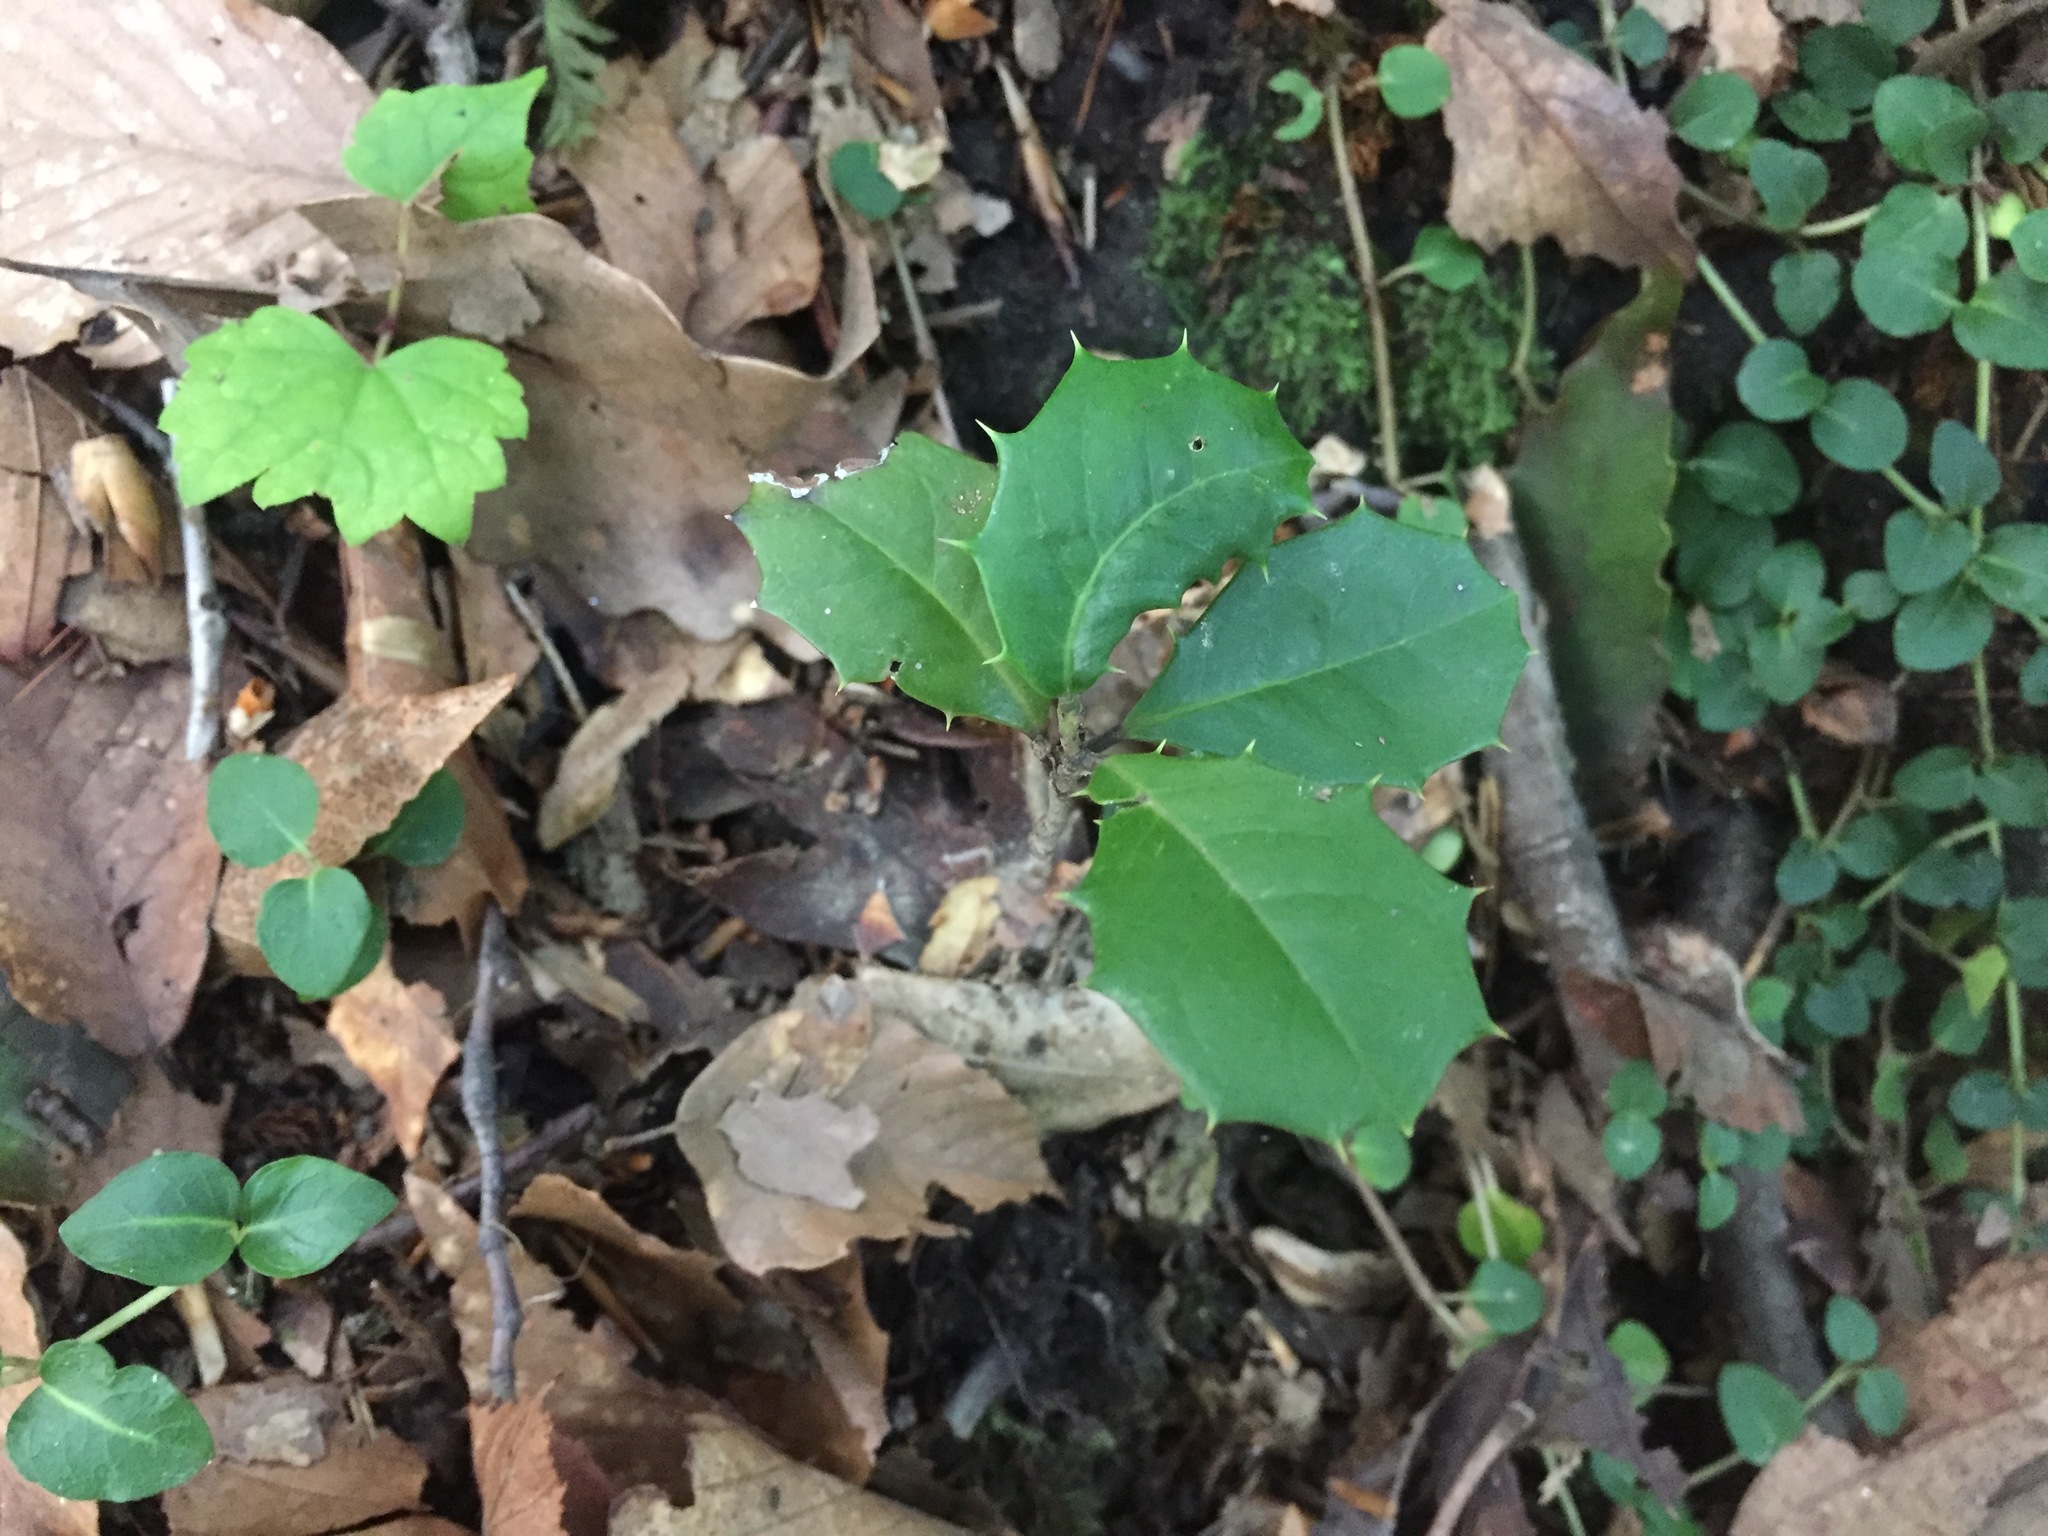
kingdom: Plantae
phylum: Tracheophyta
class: Magnoliopsida
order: Aquifoliales
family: Aquifoliaceae
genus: Ilex
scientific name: Ilex opaca
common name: American holly
